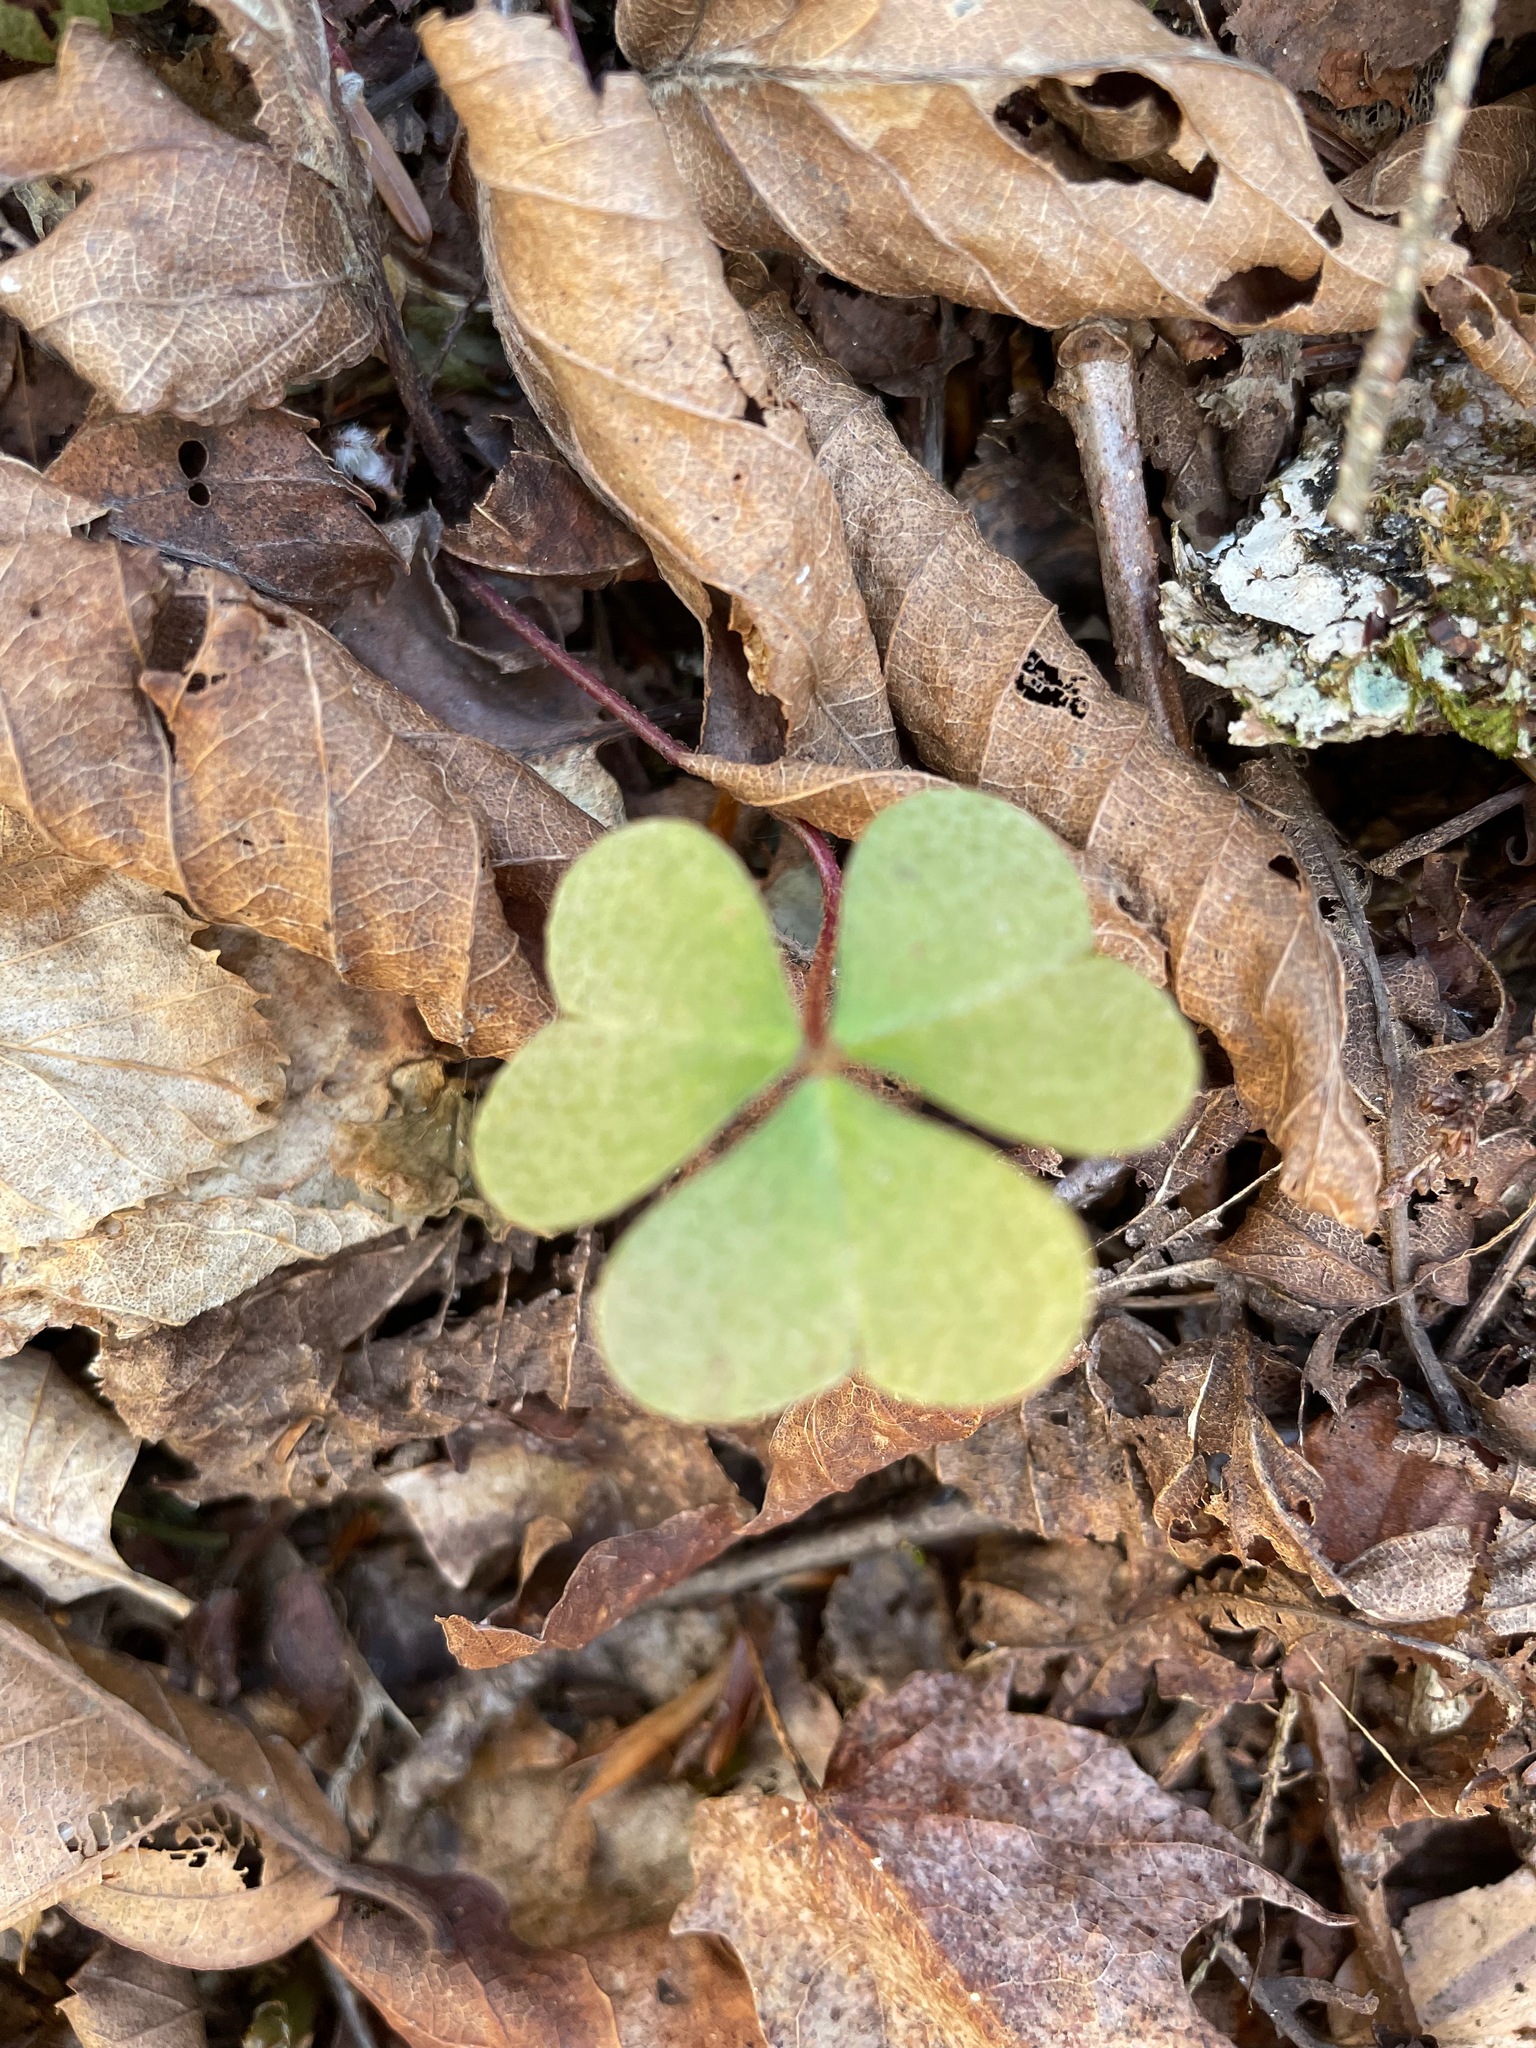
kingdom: Plantae
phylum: Tracheophyta
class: Magnoliopsida
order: Oxalidales
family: Oxalidaceae
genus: Oxalis
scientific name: Oxalis montana
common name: American wood-sorrel
